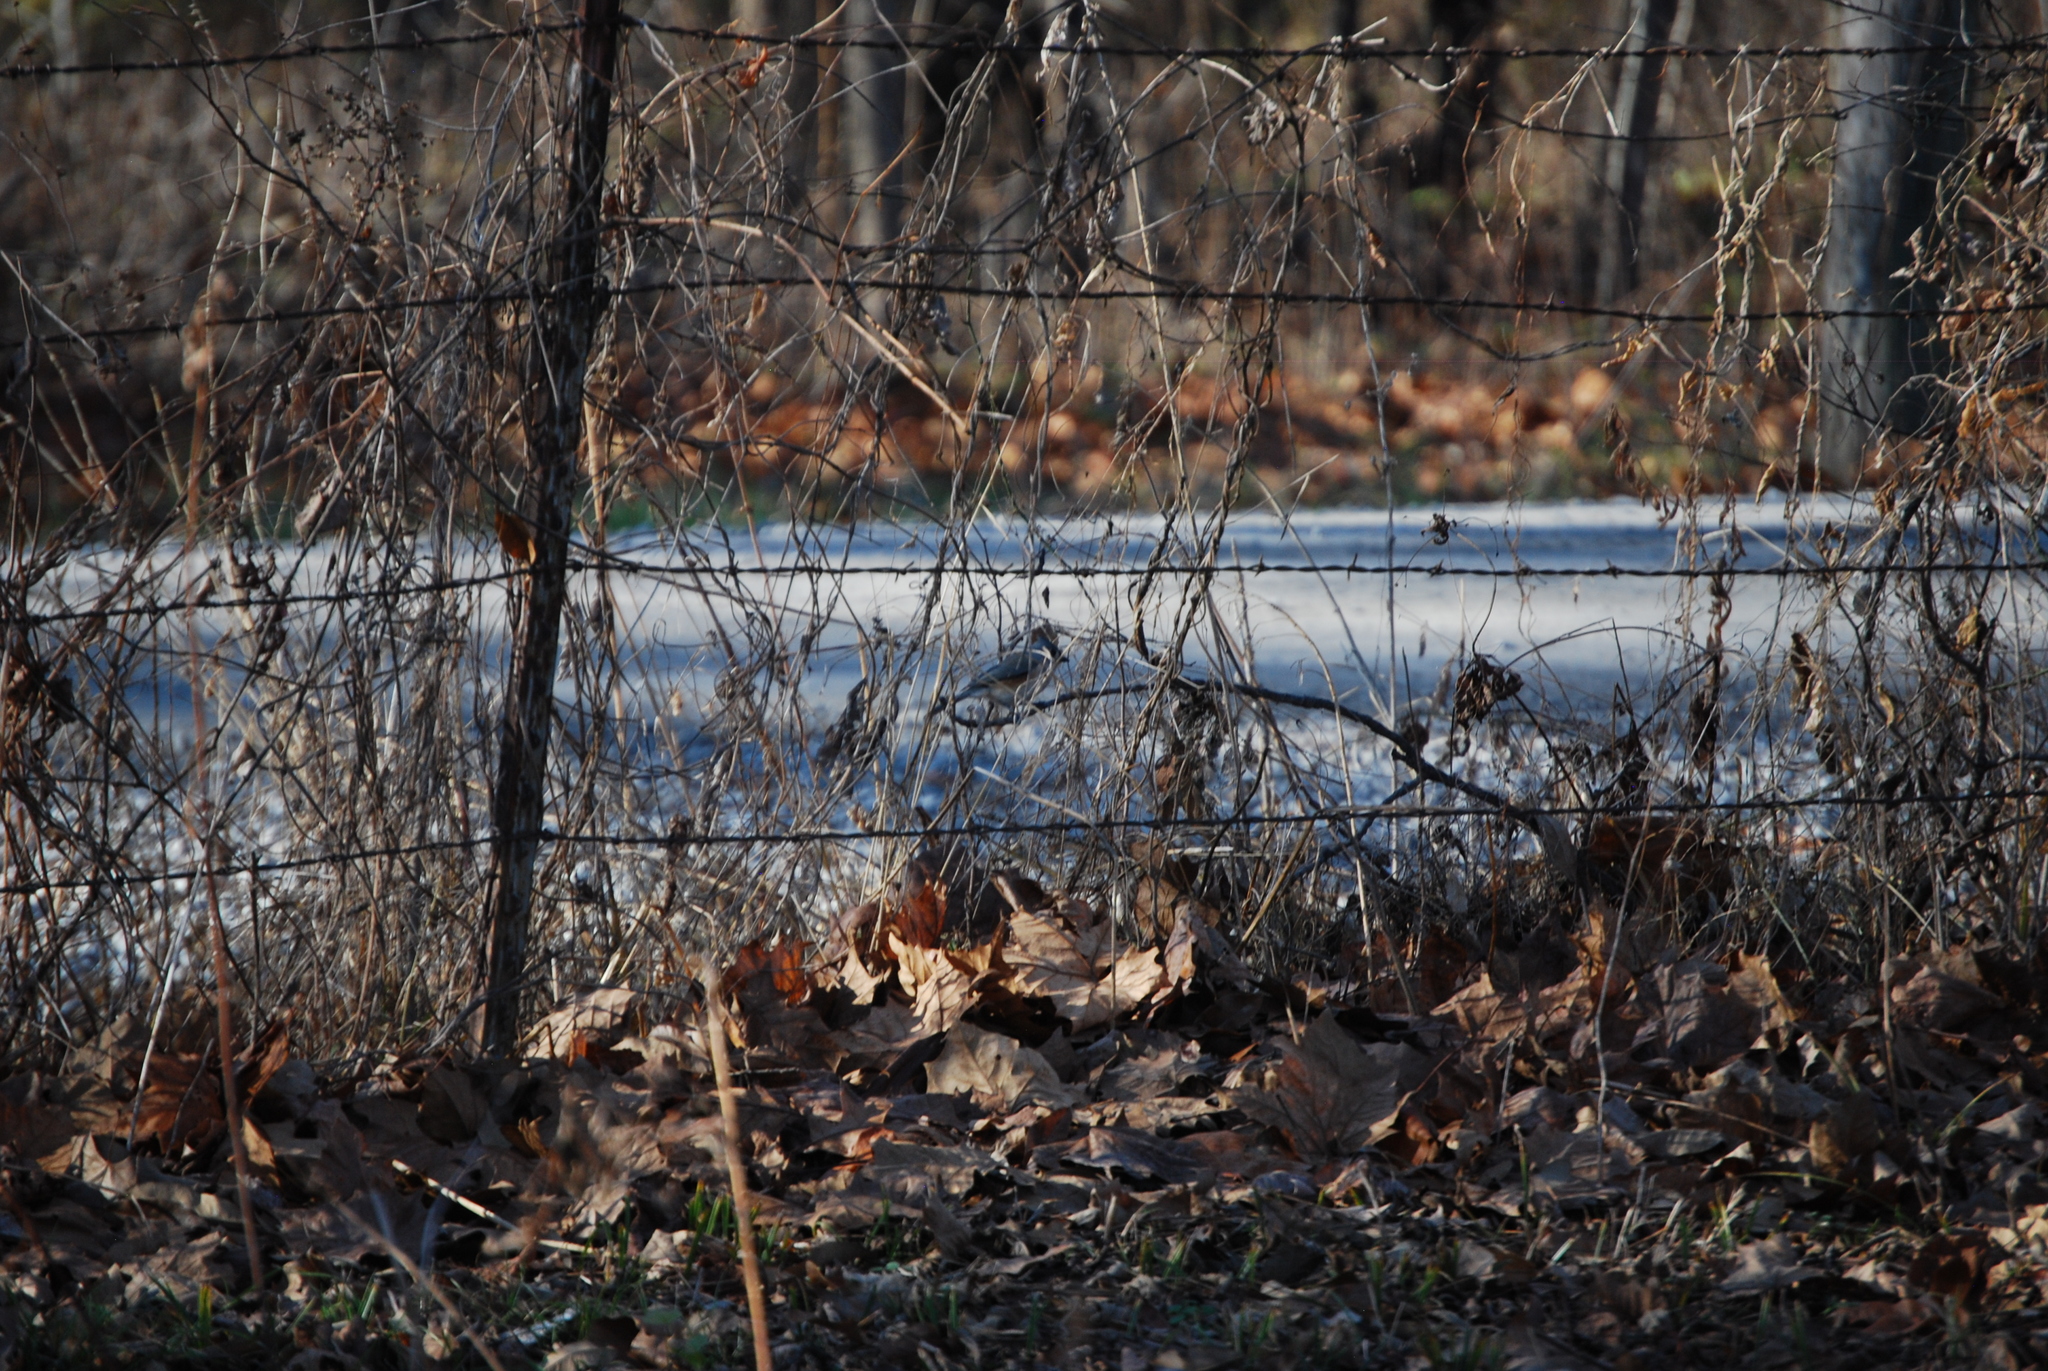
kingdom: Animalia
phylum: Chordata
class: Aves
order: Passeriformes
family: Paridae
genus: Baeolophus
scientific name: Baeolophus bicolor
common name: Tufted titmouse
